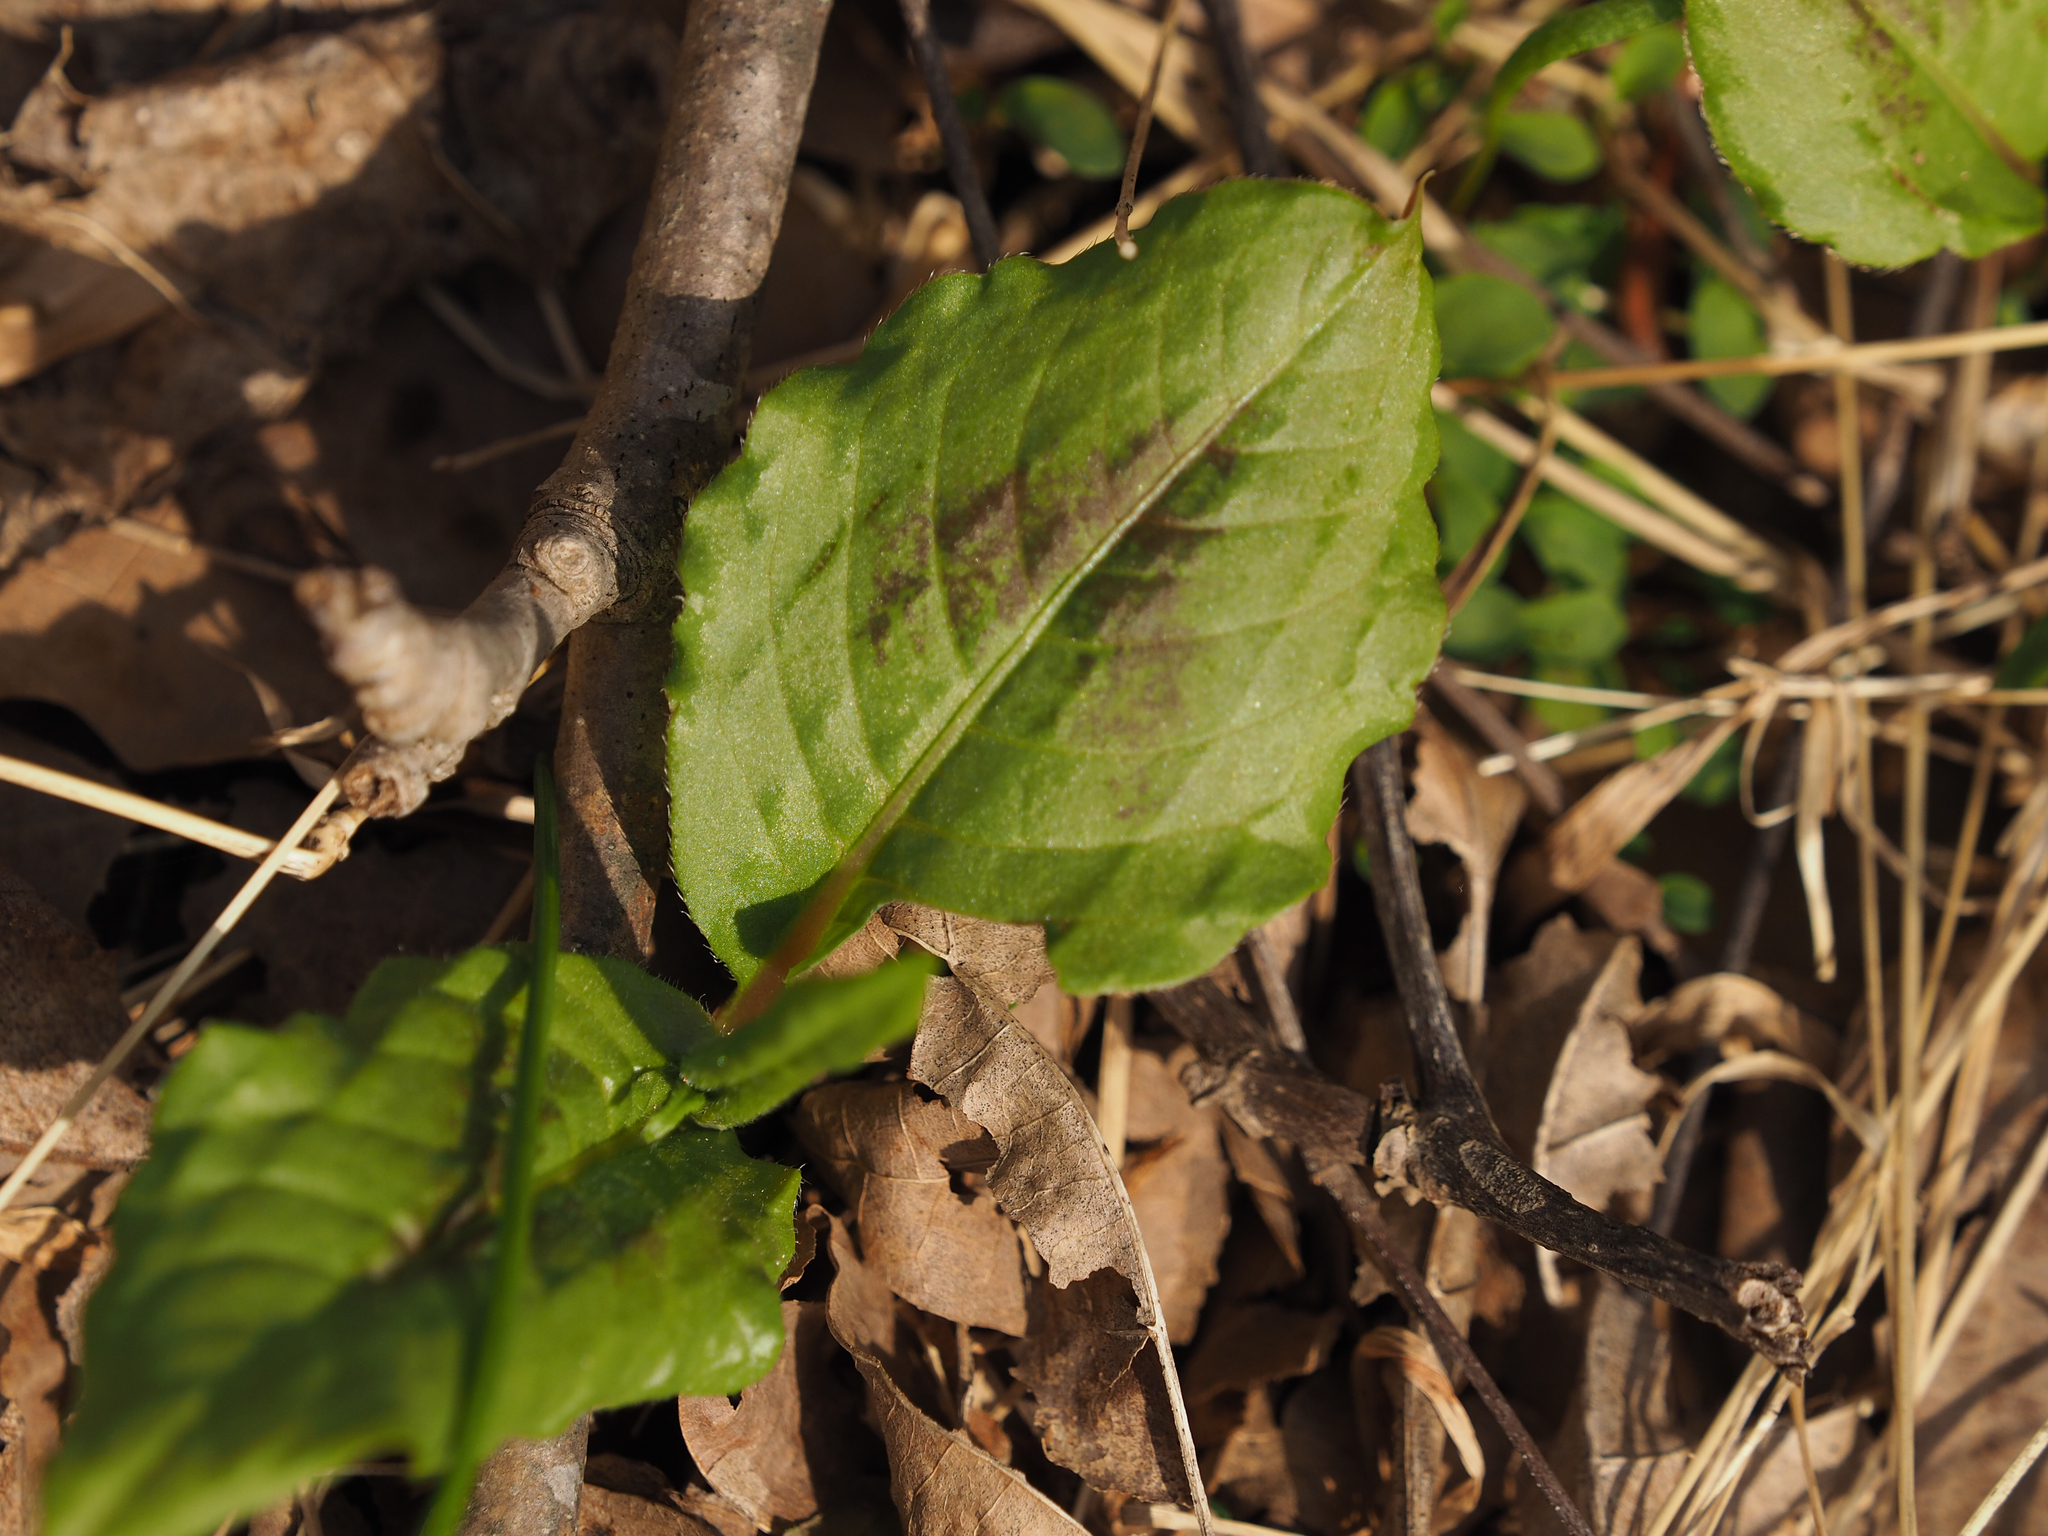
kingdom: Plantae
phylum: Tracheophyta
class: Magnoliopsida
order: Caryophyllales
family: Polygonaceae
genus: Persicaria
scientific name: Persicaria virginiana
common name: Jumpseed
